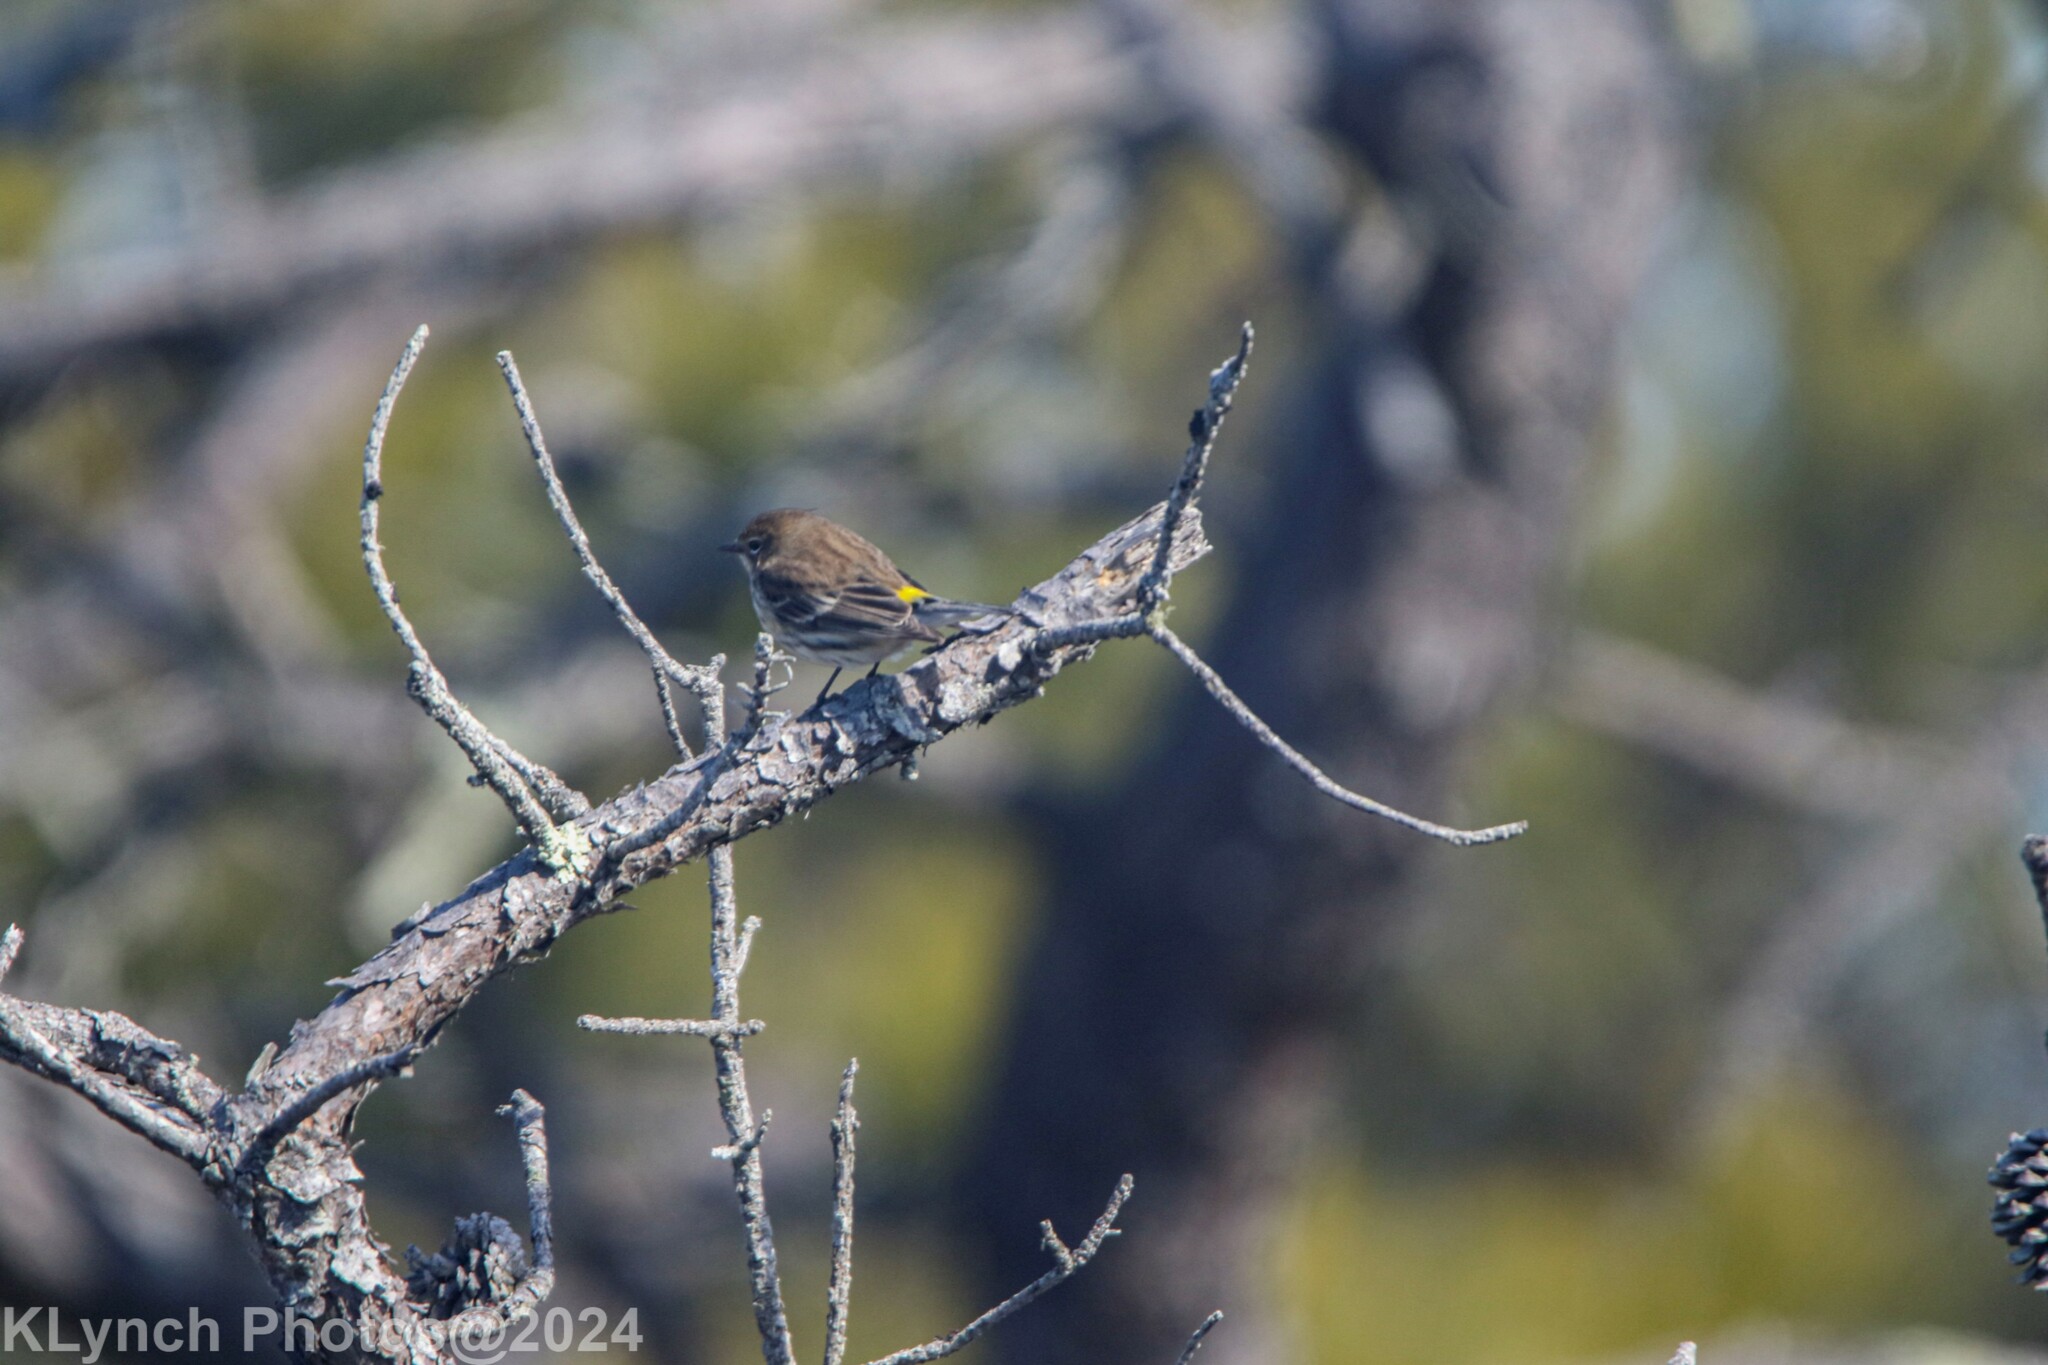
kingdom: Animalia
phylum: Chordata
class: Aves
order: Passeriformes
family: Parulidae
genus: Setophaga
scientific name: Setophaga coronata
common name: Myrtle warbler
